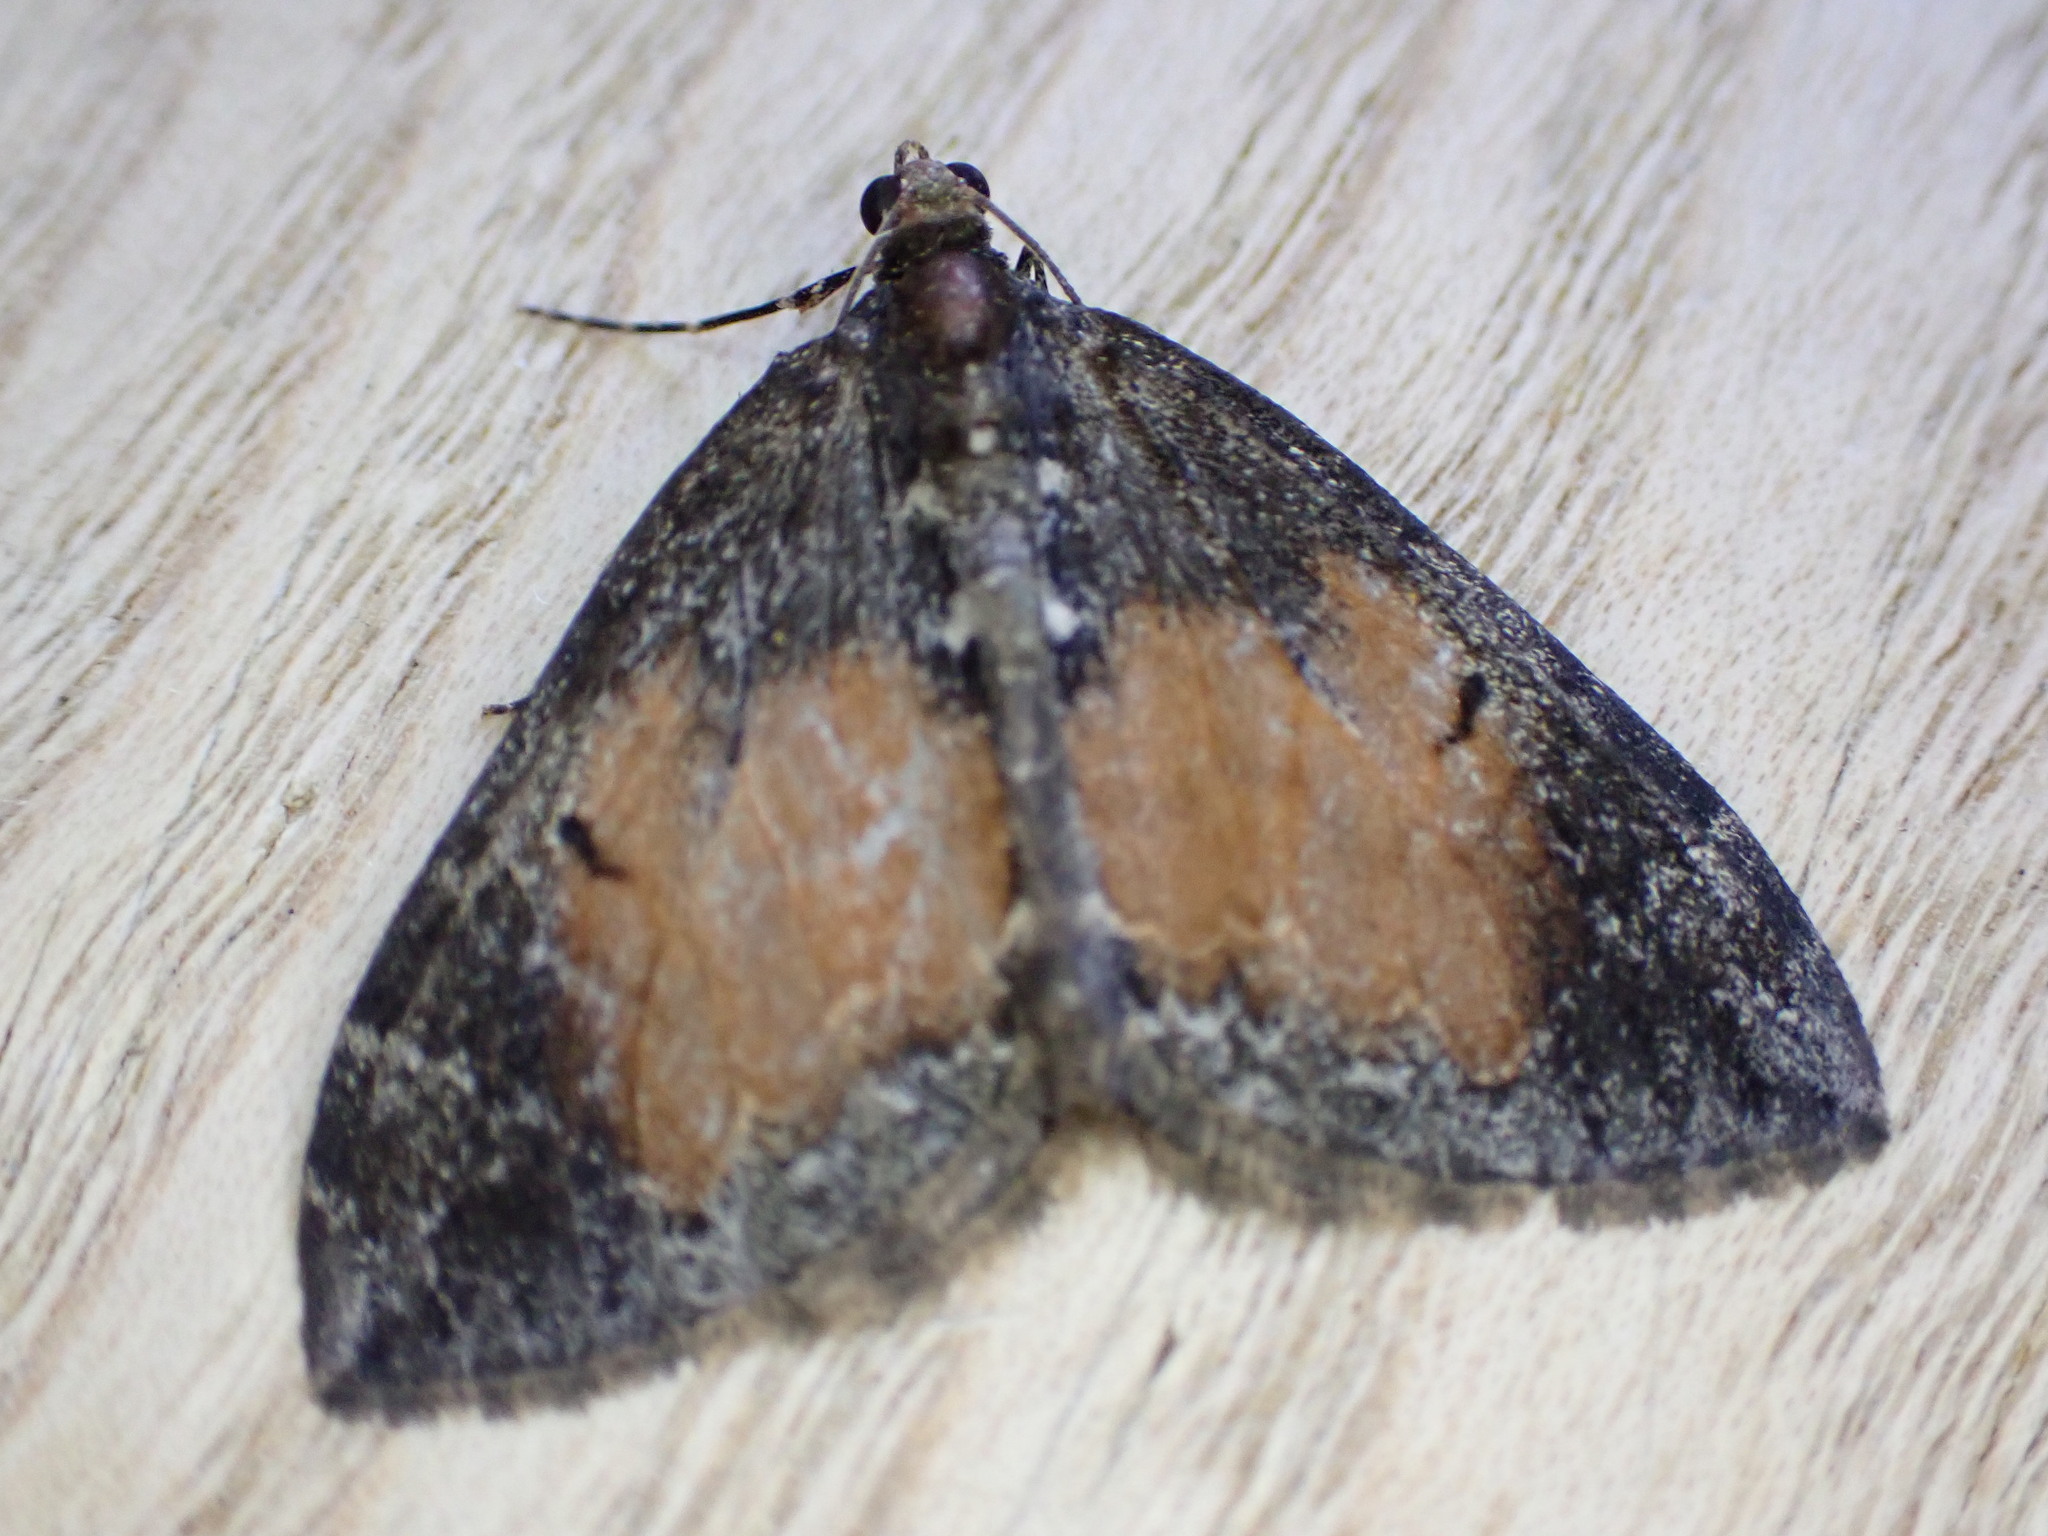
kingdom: Animalia
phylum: Arthropoda
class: Insecta
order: Lepidoptera
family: Geometridae
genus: Dysstroma
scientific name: Dysstroma truncata
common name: Common marbled carpet
